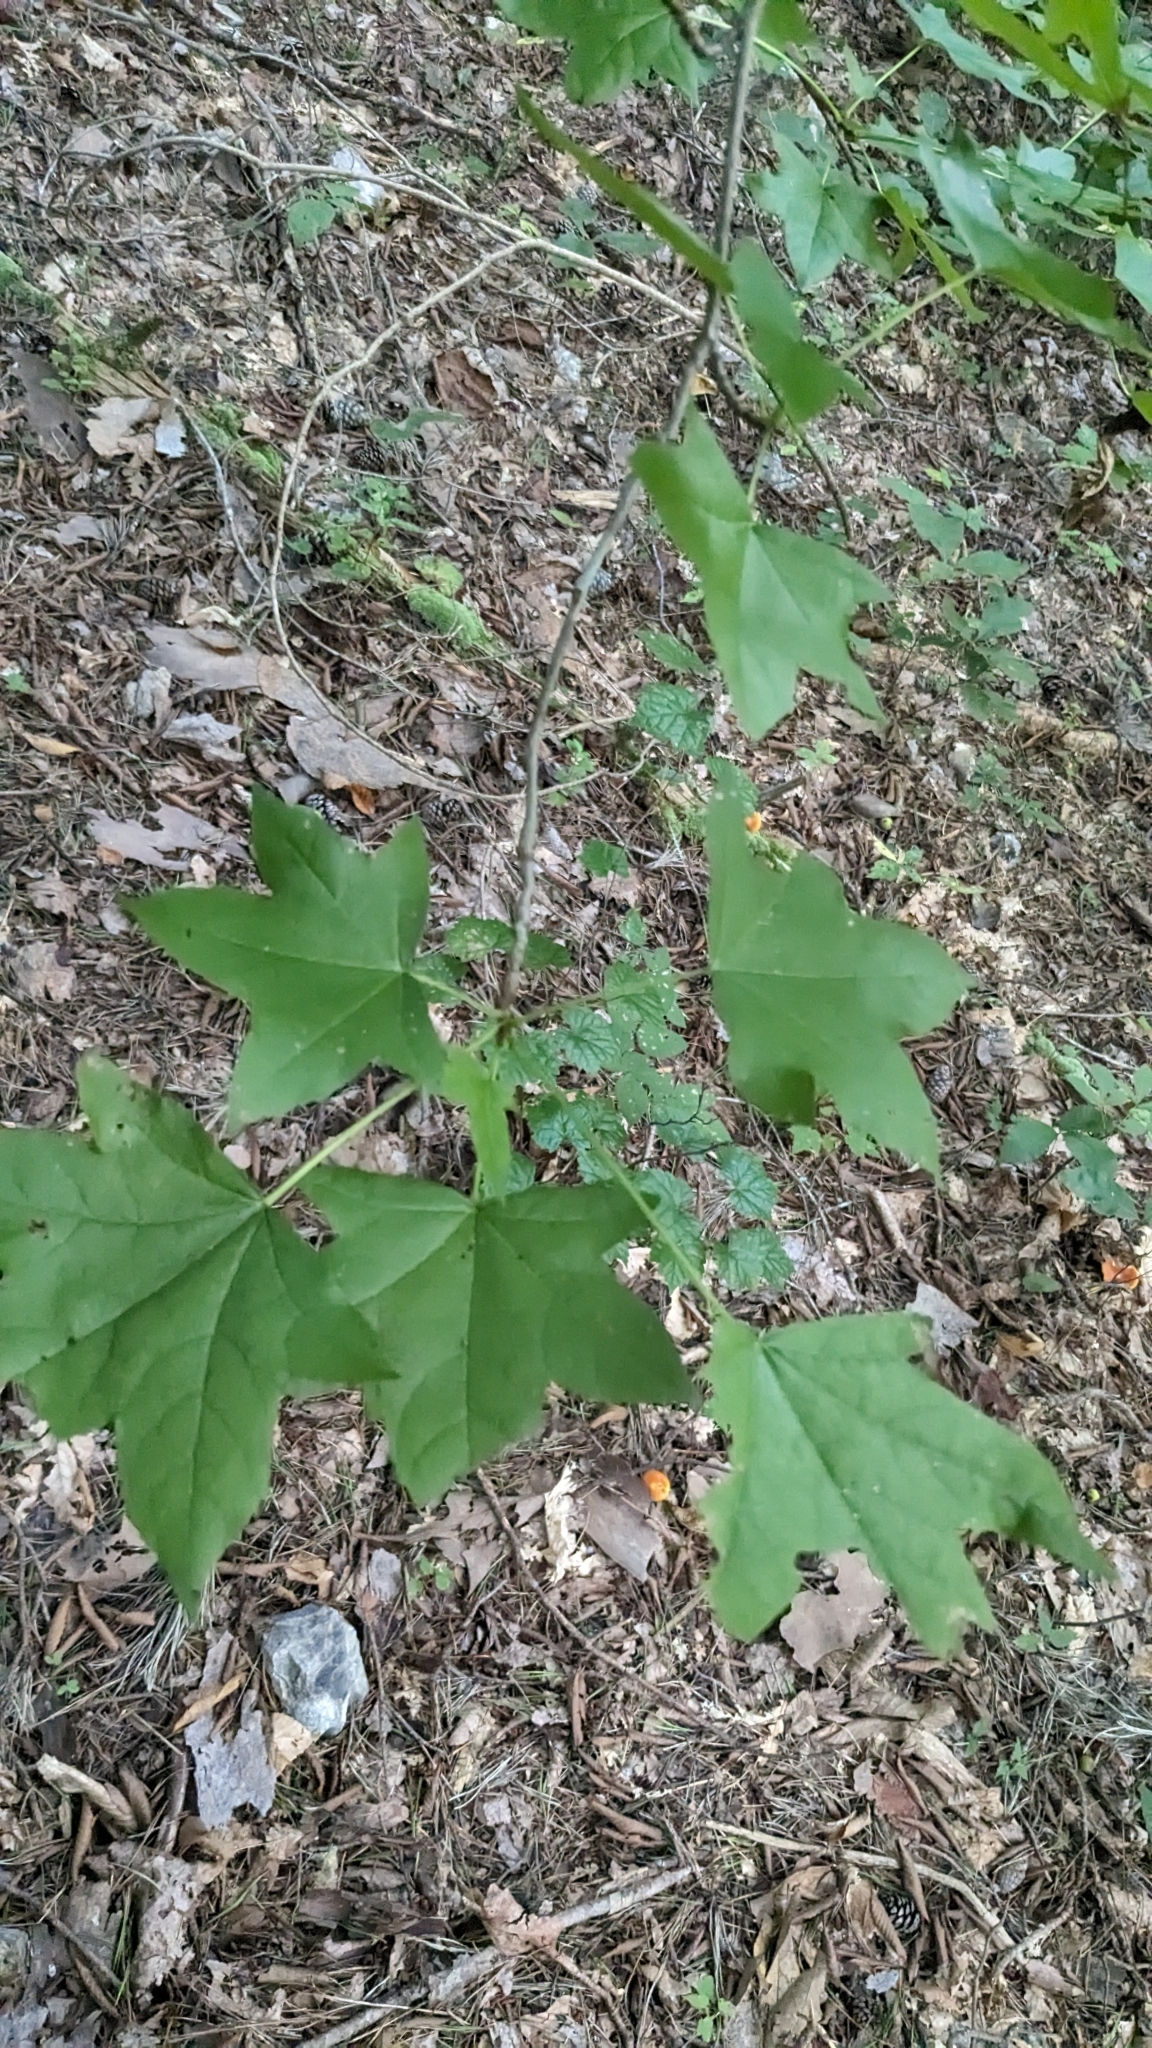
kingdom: Plantae
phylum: Tracheophyta
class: Magnoliopsida
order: Saxifragales
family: Altingiaceae
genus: Liquidambar
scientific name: Liquidambar styraciflua
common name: Sweet gum
